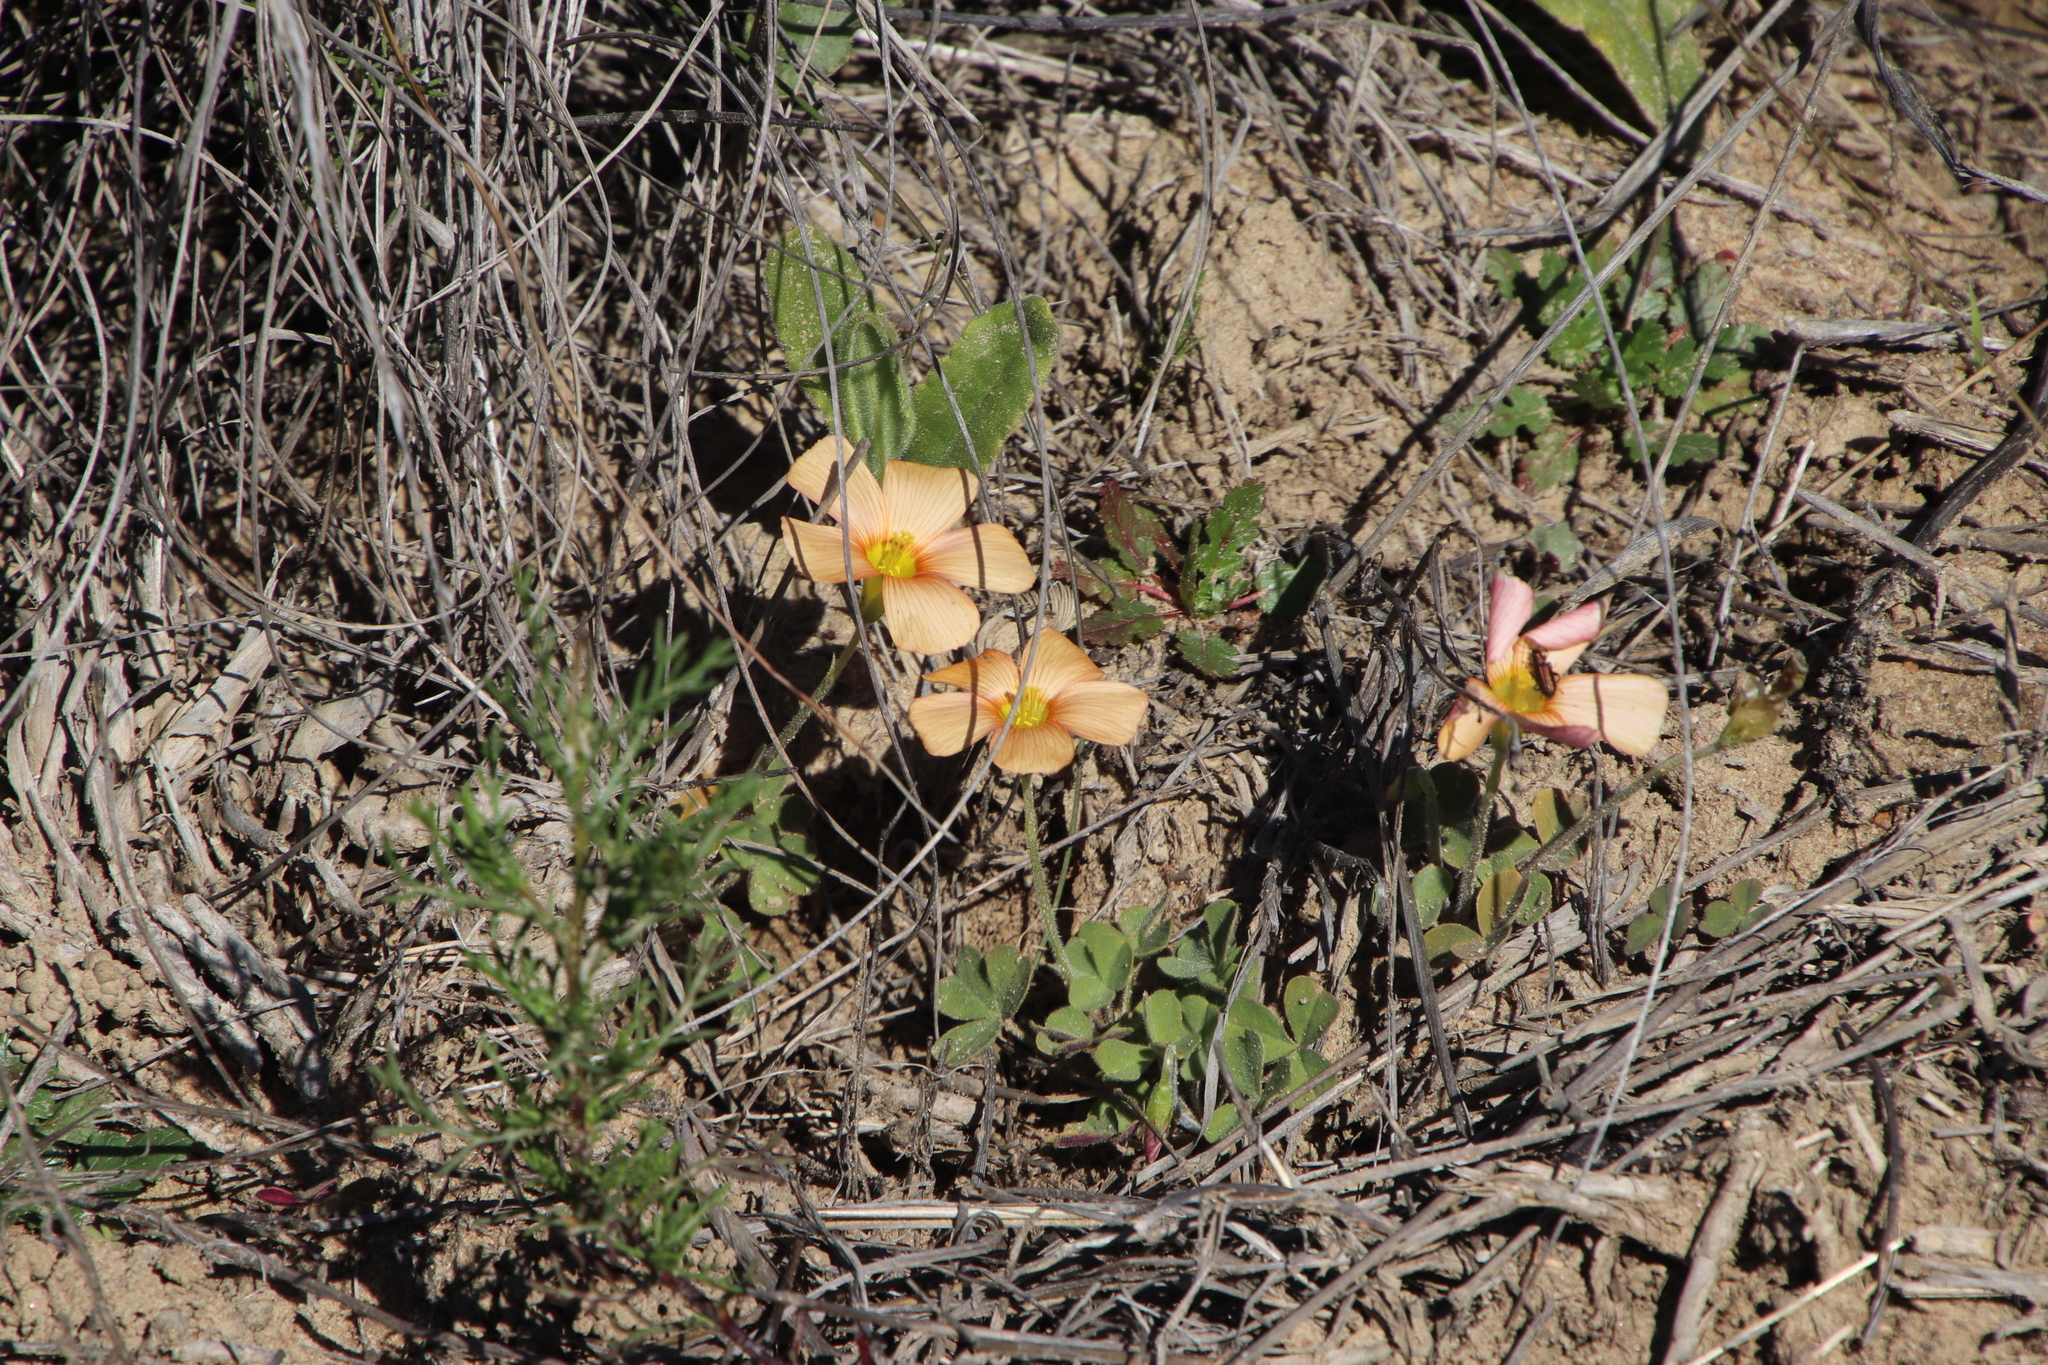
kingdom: Plantae
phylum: Tracheophyta
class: Magnoliopsida
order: Oxalidales
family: Oxalidaceae
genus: Oxalis
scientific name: Oxalis obtusa
